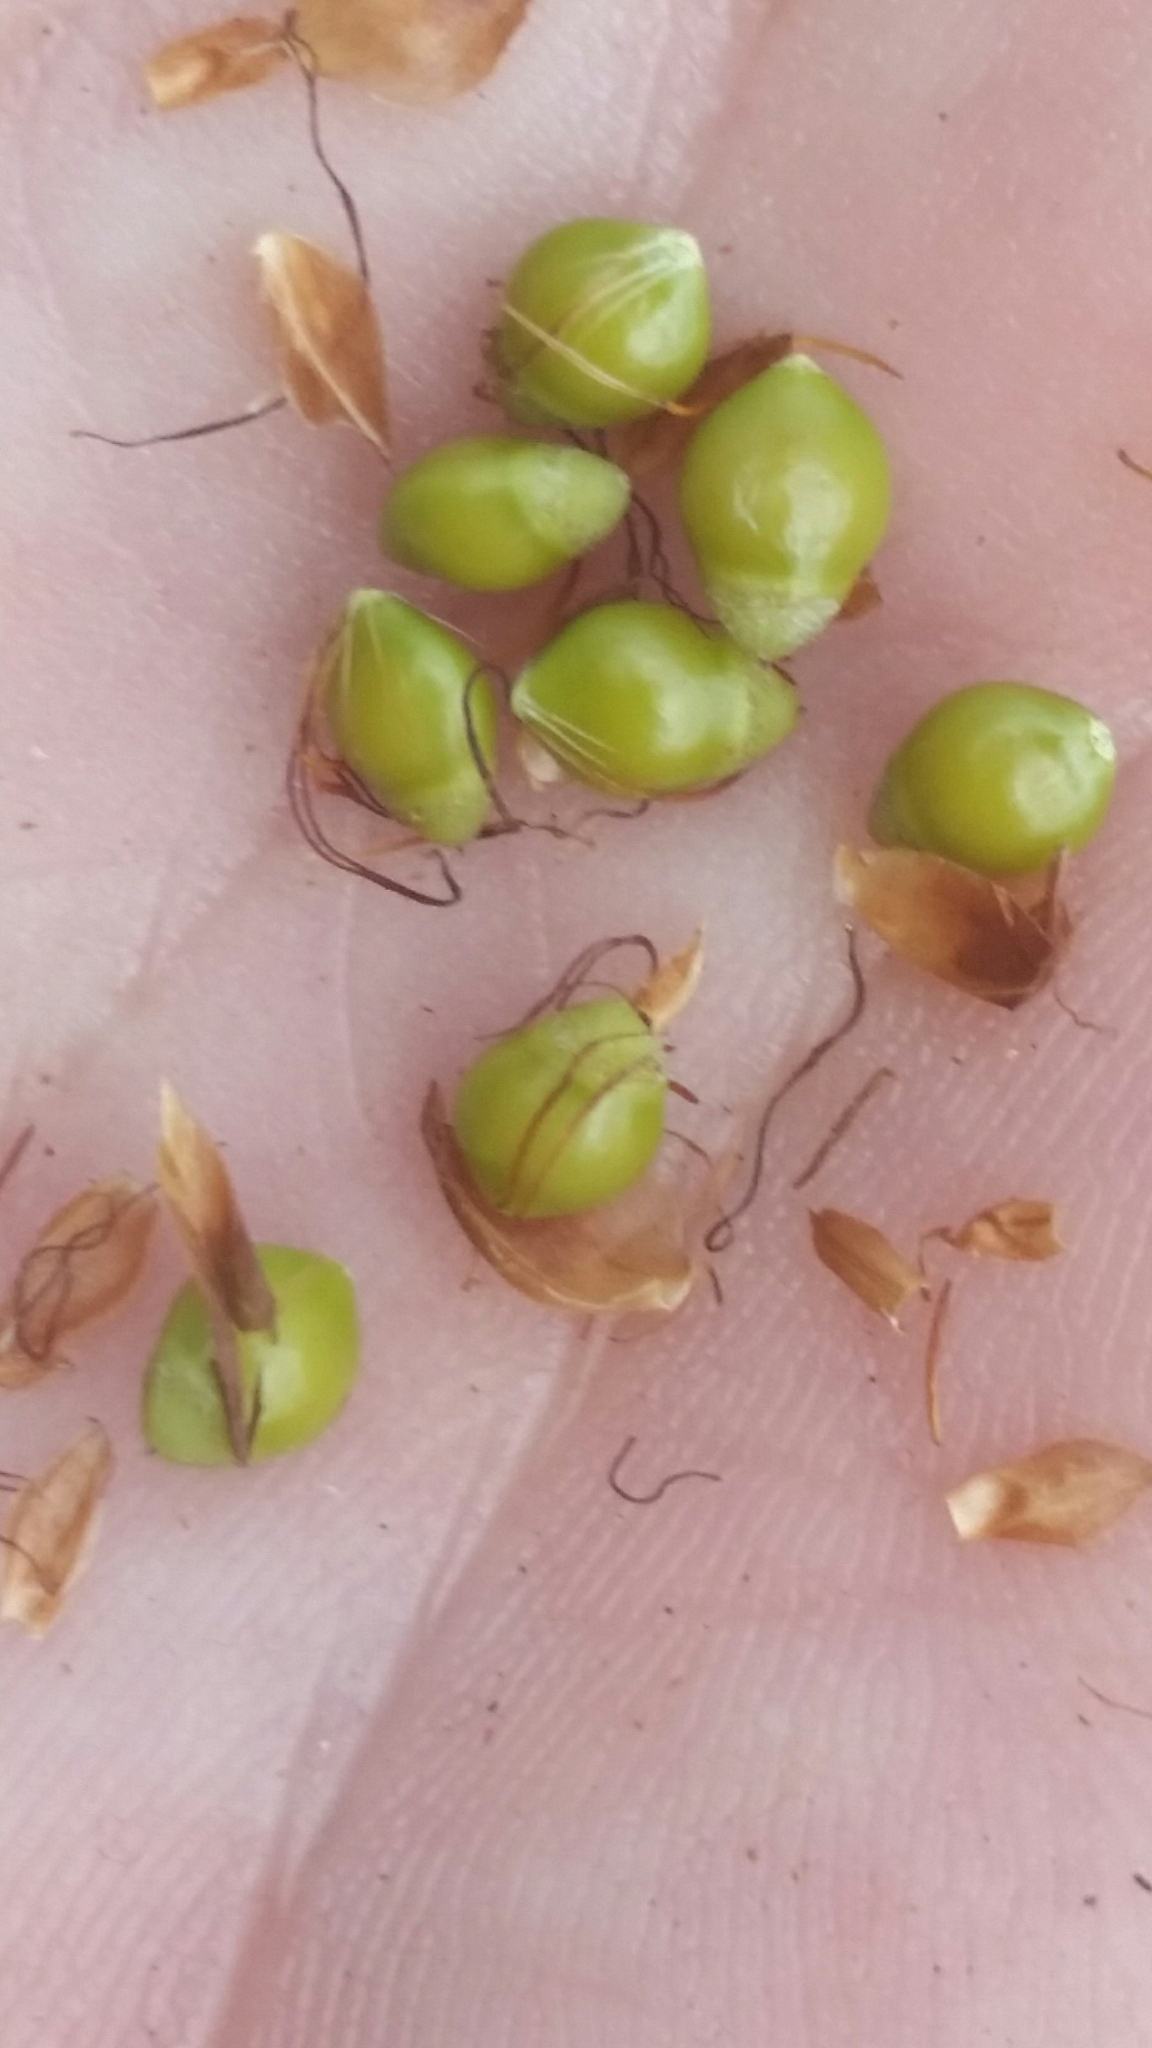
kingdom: Plantae
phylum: Tracheophyta
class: Liliopsida
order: Poales
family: Cyperaceae
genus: Rhynchospora
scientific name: Rhynchospora megalocarpa
